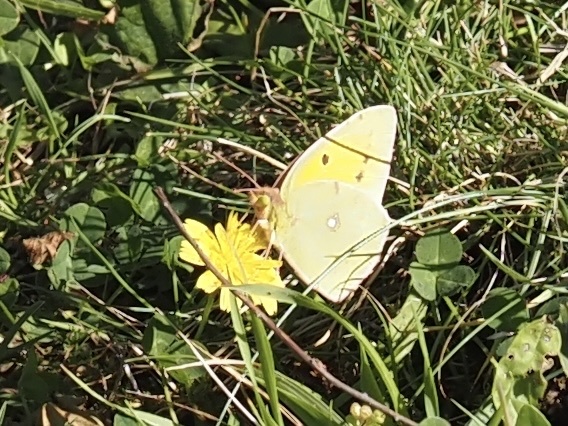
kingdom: Animalia
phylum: Arthropoda
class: Insecta
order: Lepidoptera
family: Pieridae
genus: Colias
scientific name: Colias croceus
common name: Clouded yellow
